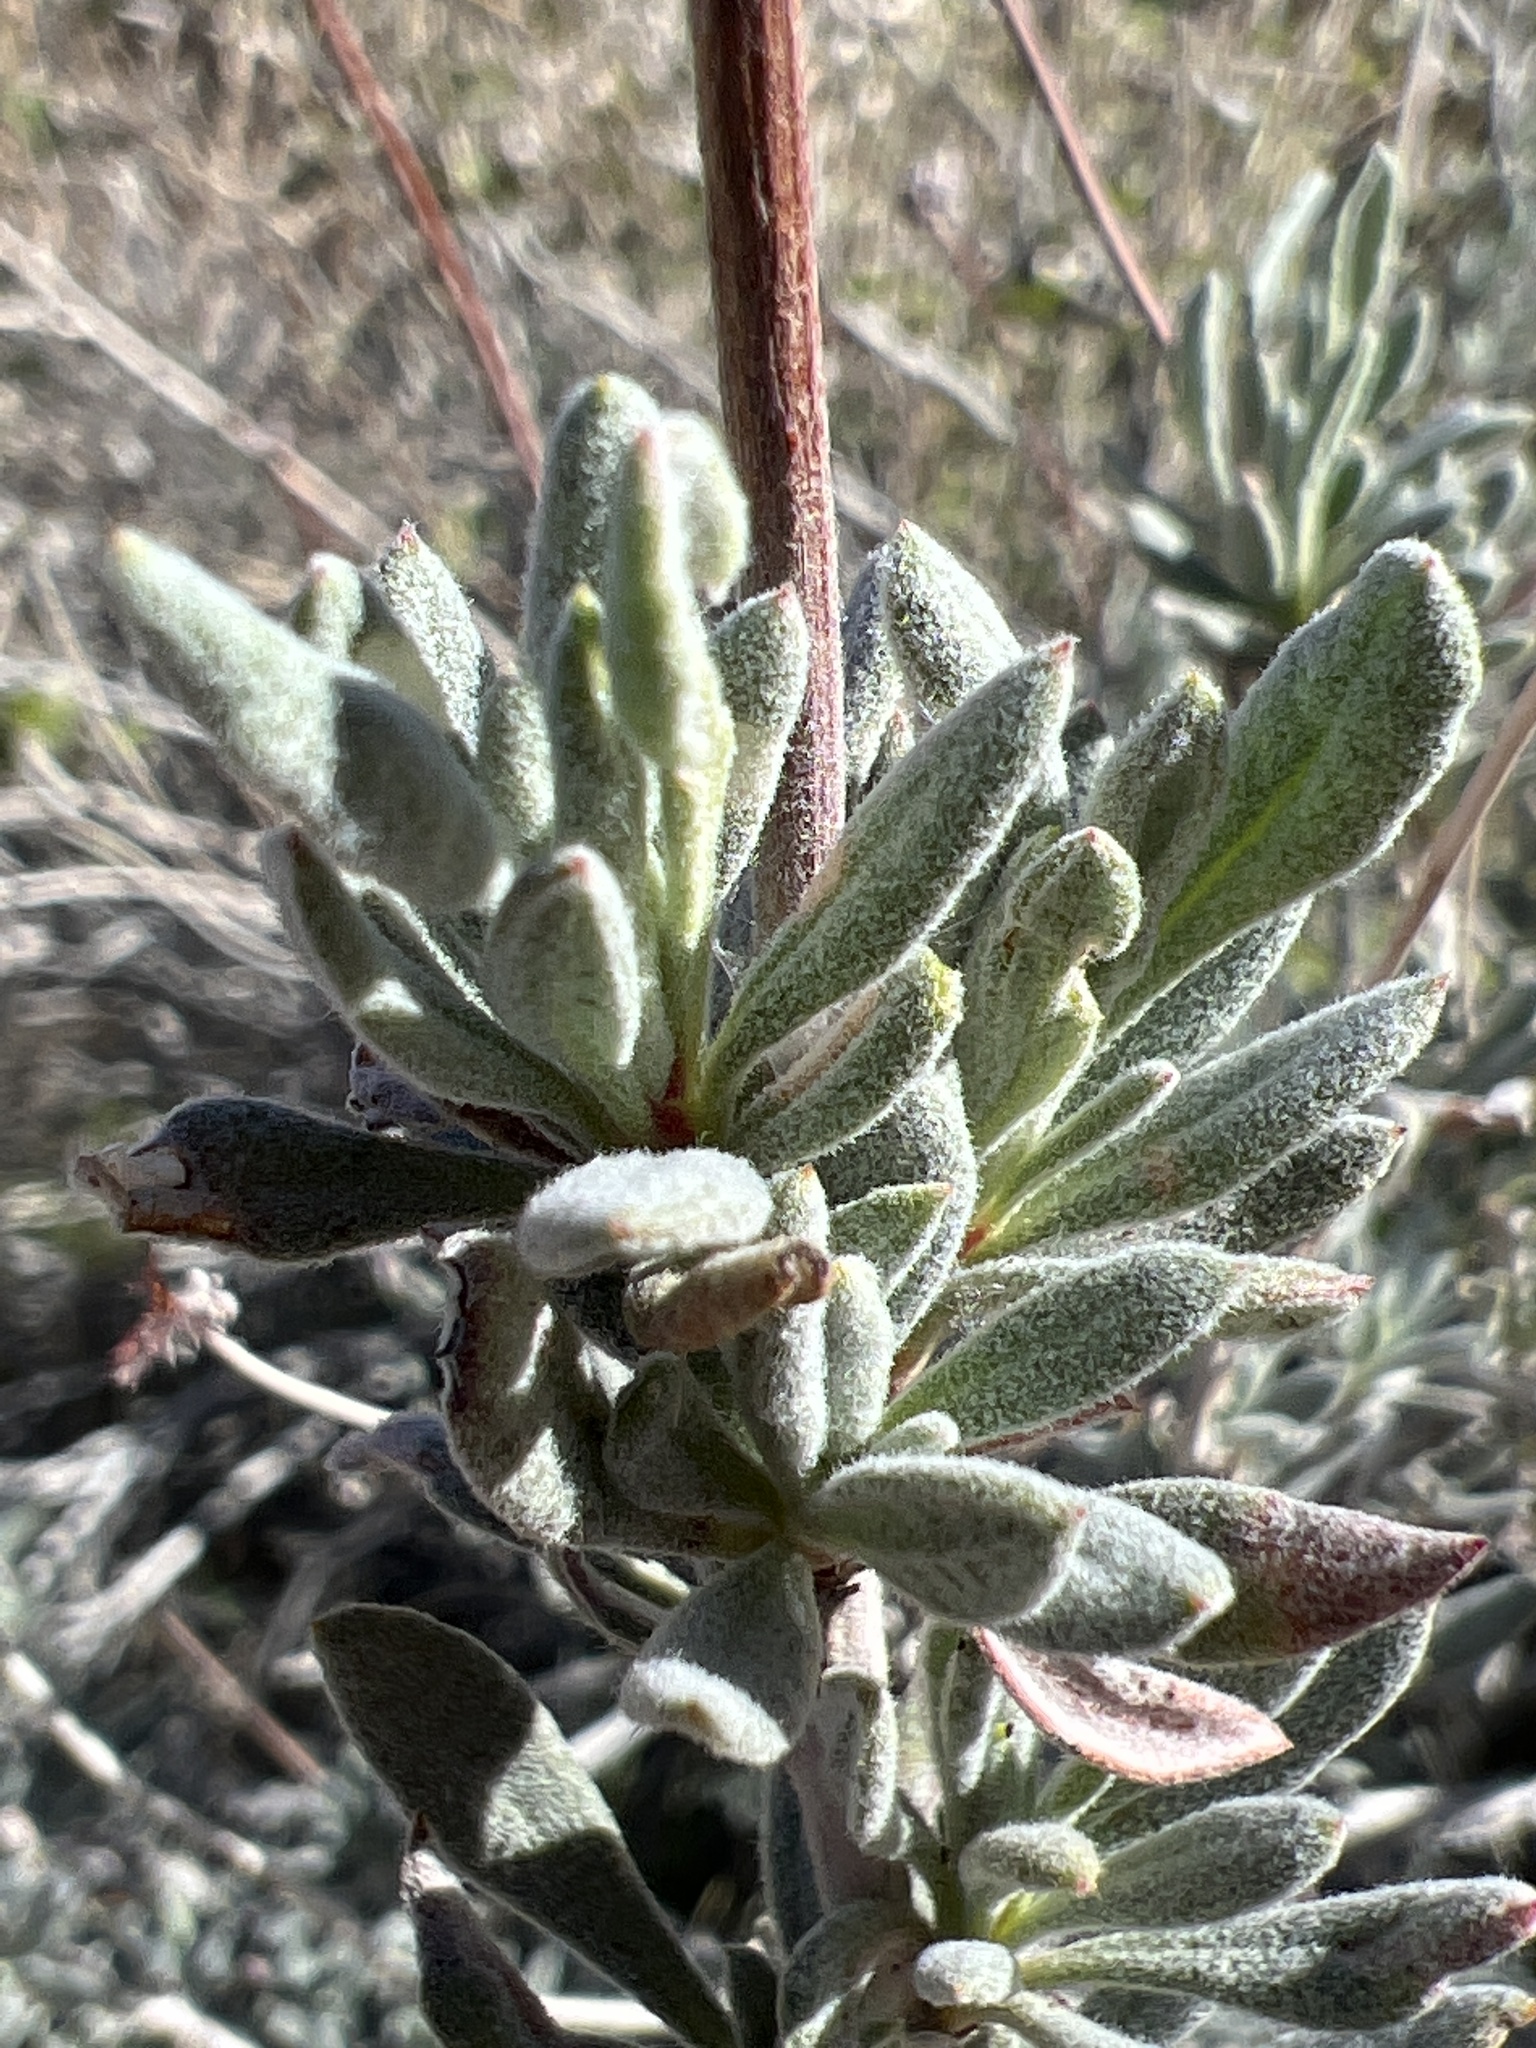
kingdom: Plantae
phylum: Tracheophyta
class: Magnoliopsida
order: Caryophyllales
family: Polygonaceae
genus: Eriogonum
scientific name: Eriogonum fasciculatum
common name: California wild buckwheat
